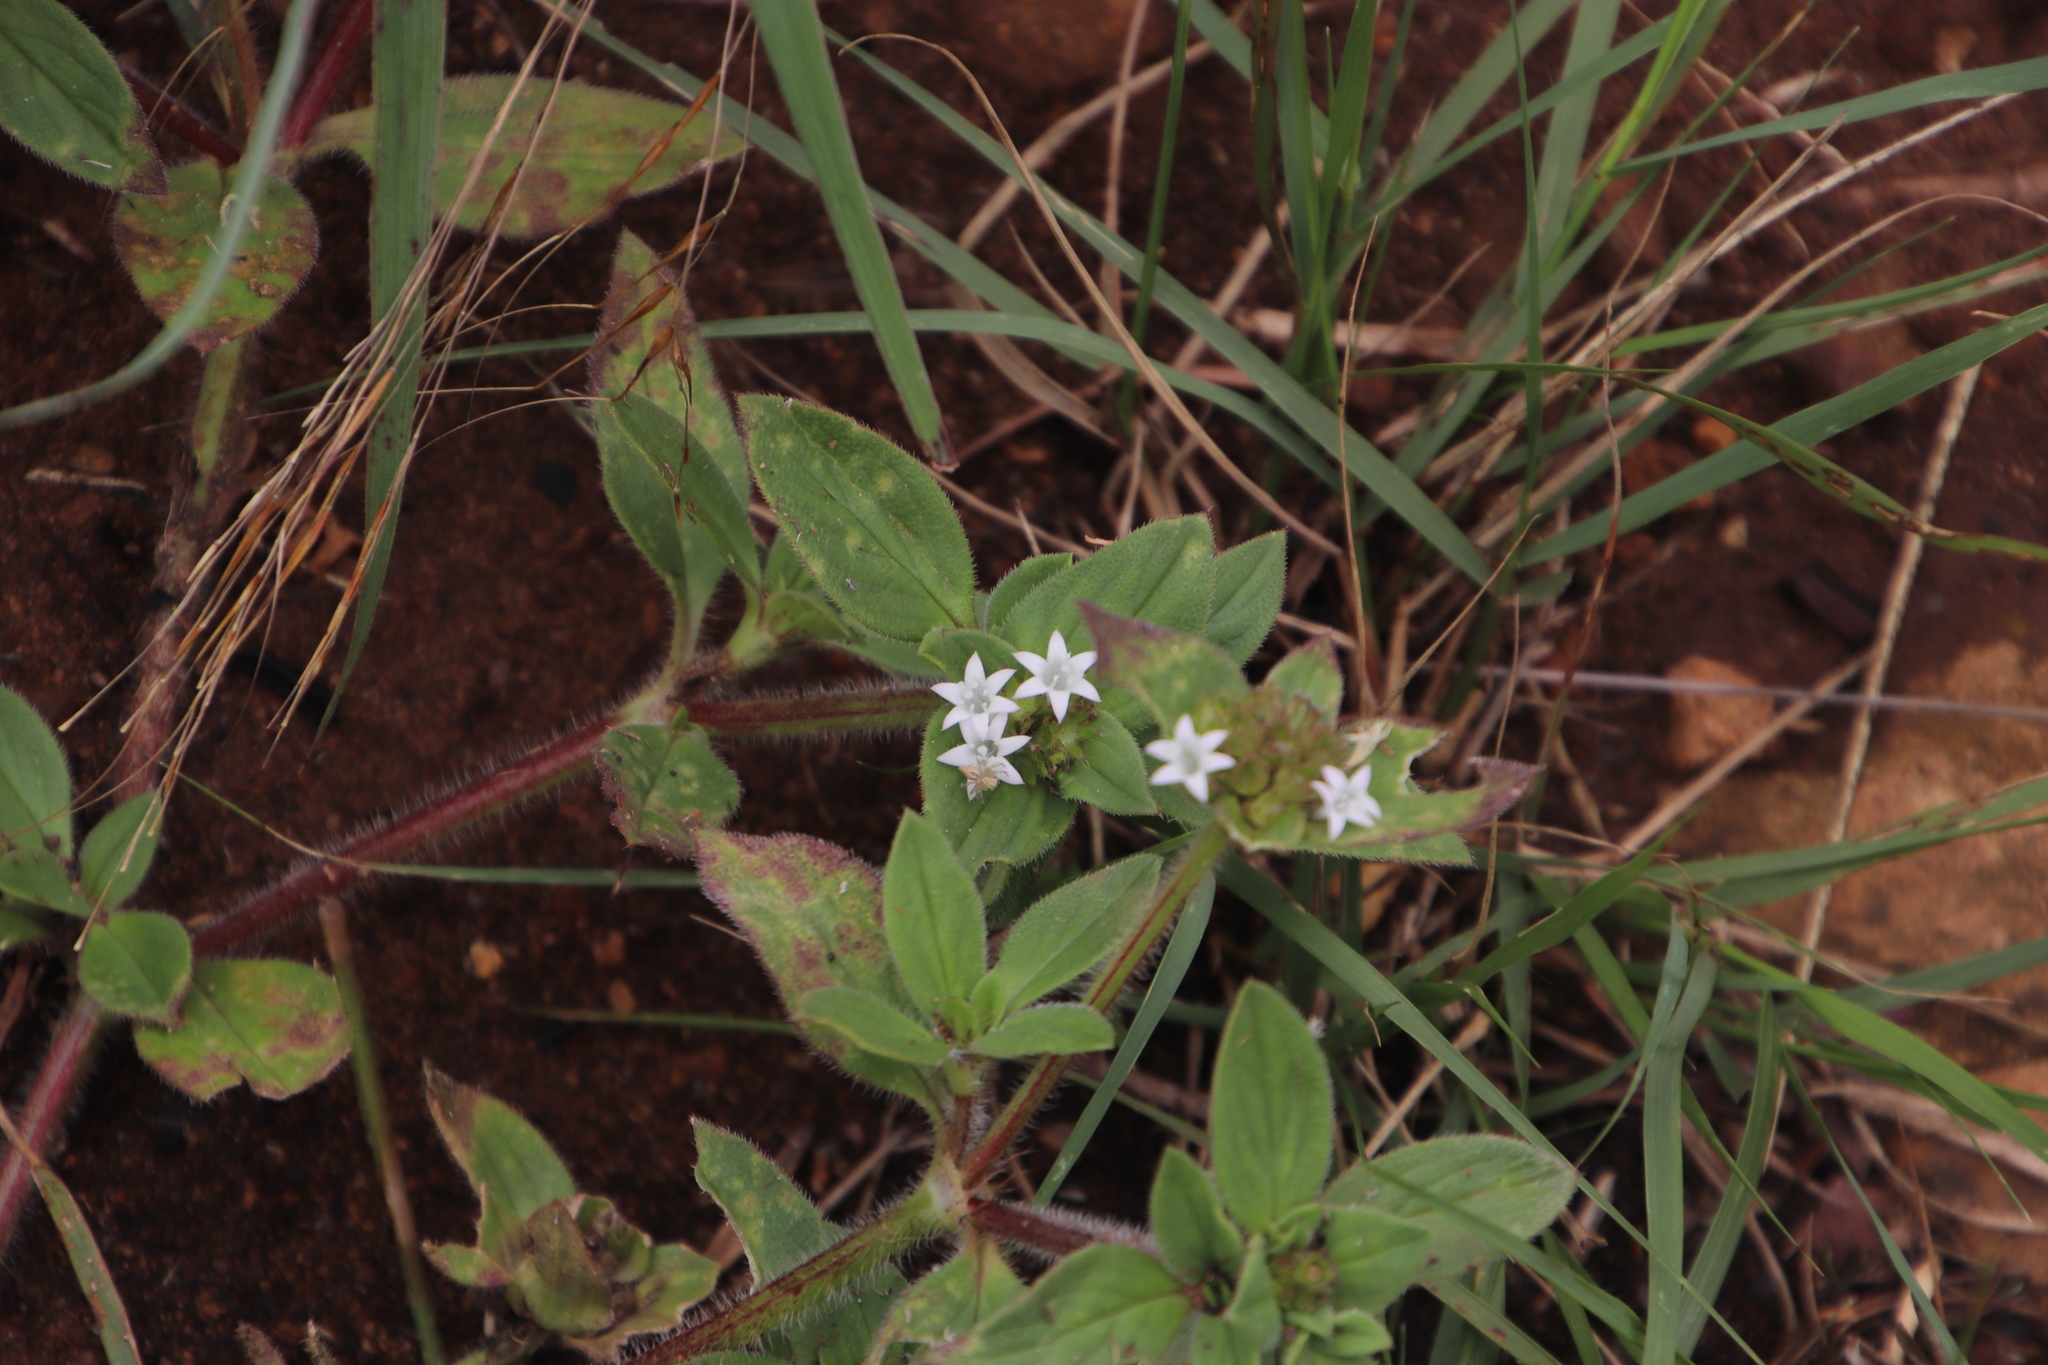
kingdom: Plantae
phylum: Tracheophyta
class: Magnoliopsida
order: Gentianales
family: Rubiaceae
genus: Richardia
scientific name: Richardia brasiliensis
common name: Tropical mexican clover
